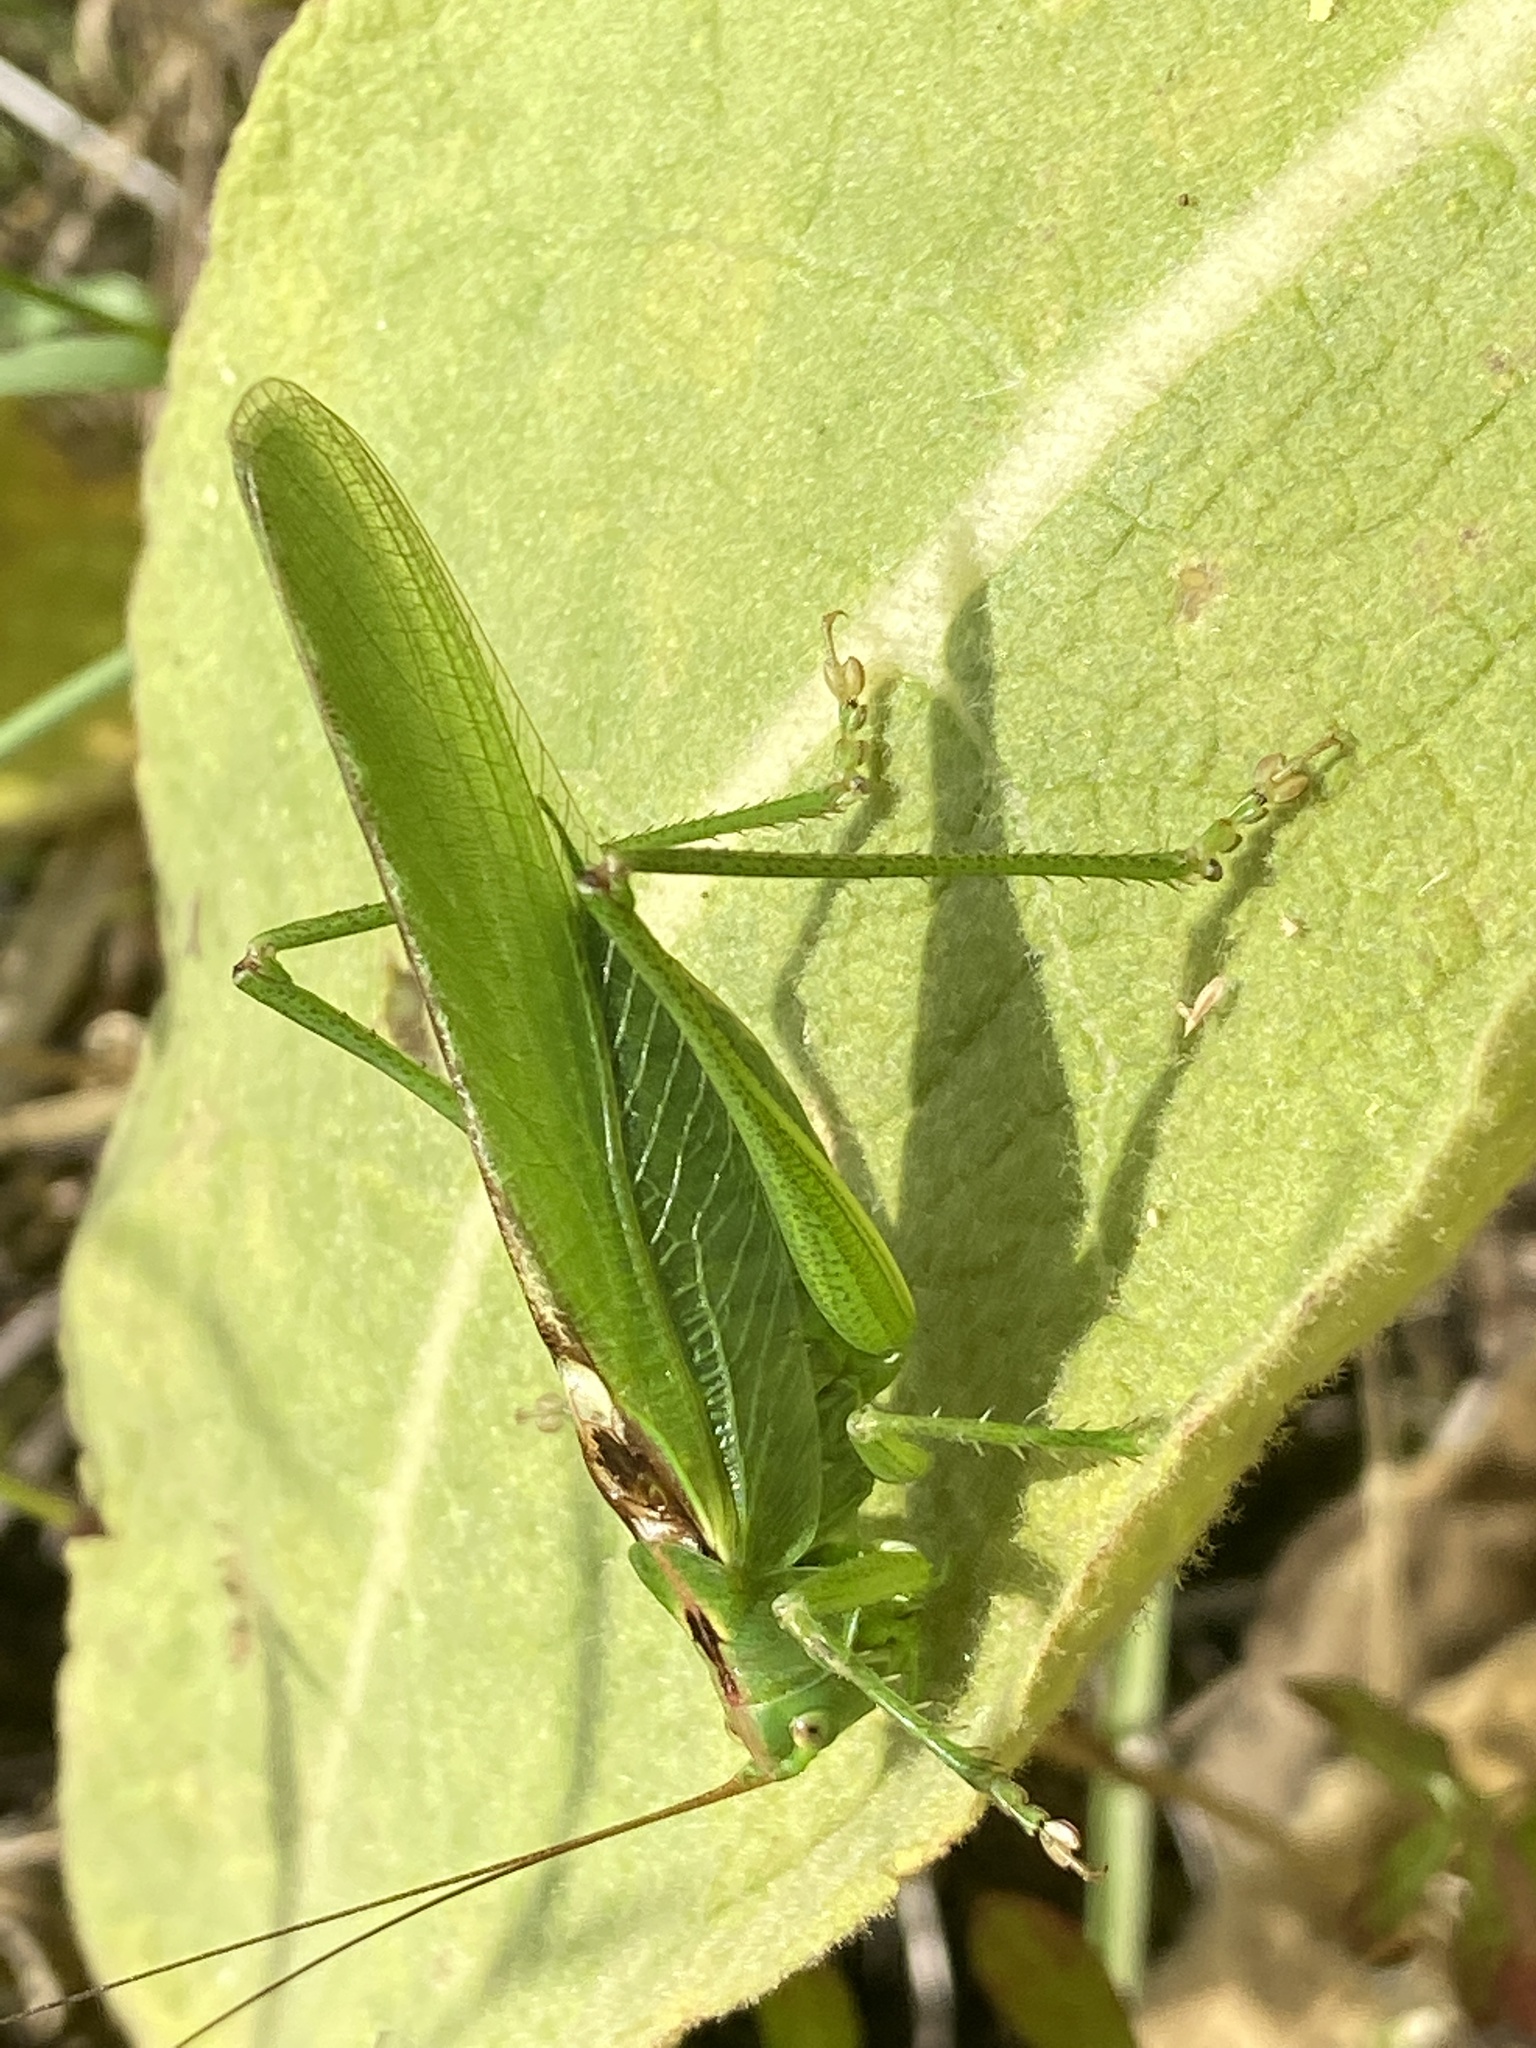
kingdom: Animalia
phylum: Arthropoda
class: Insecta
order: Orthoptera
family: Tettigoniidae
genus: Tettigonia
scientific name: Tettigonia viridissima
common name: Great green bush-cricket
